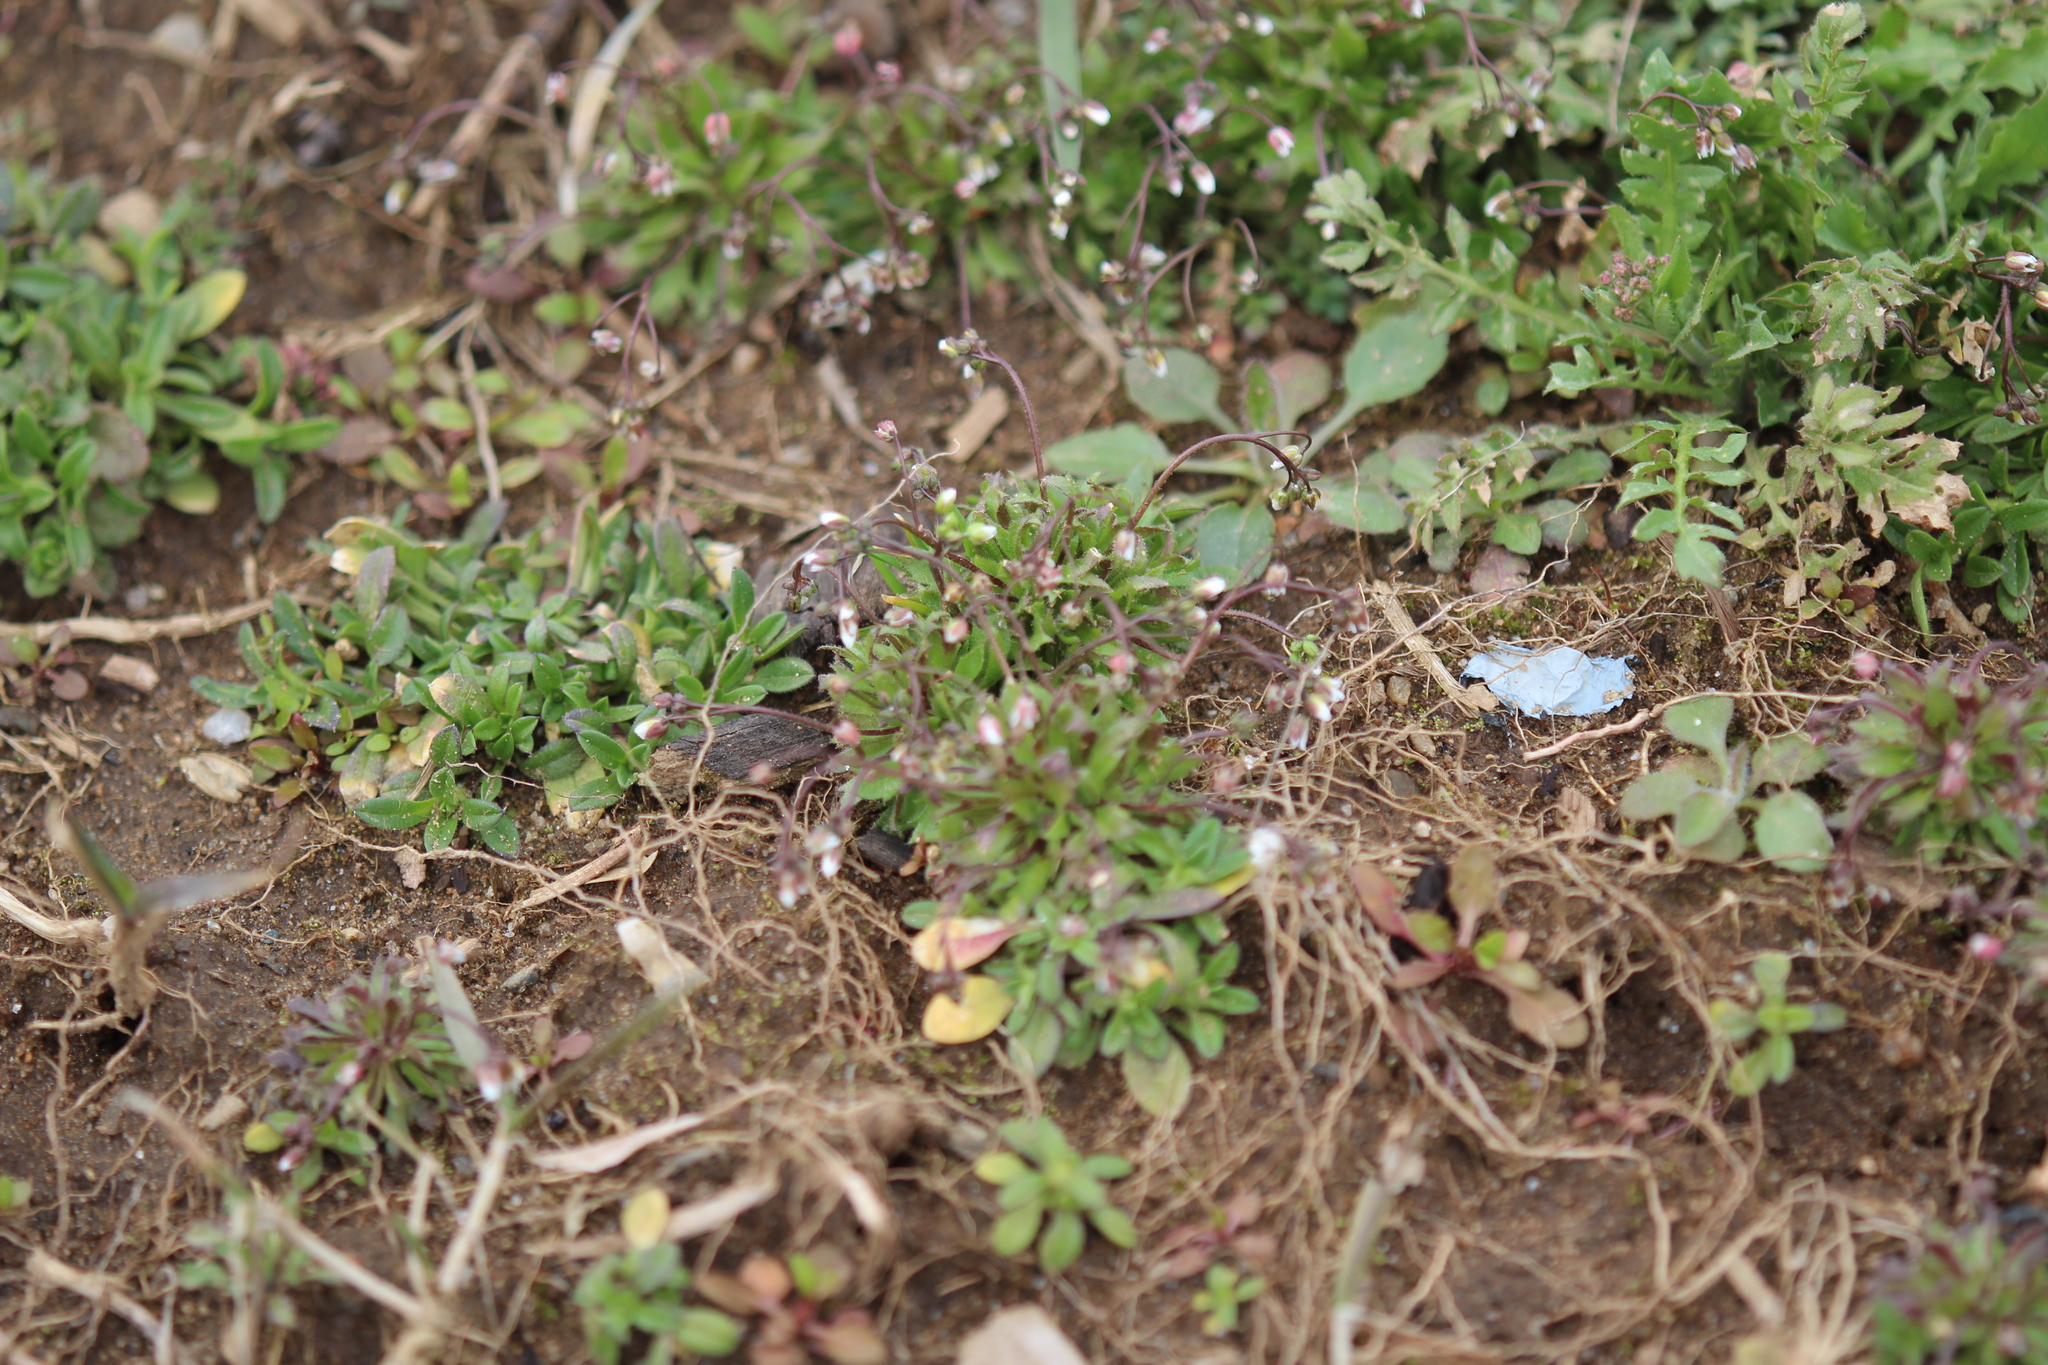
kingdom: Plantae
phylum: Tracheophyta
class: Magnoliopsida
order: Brassicales
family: Brassicaceae
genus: Draba
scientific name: Draba verna
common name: Spring draba
